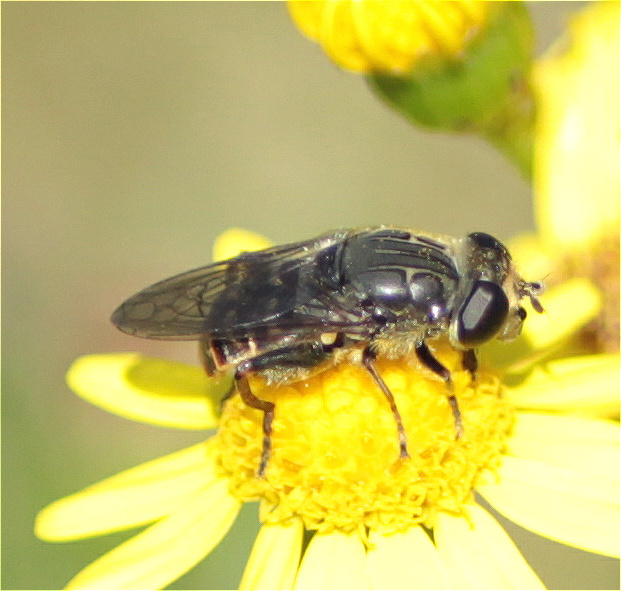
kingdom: Animalia
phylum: Arthropoda
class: Insecta
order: Diptera
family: Syrphidae
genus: Asemosyrphus
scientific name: Asemosyrphus
